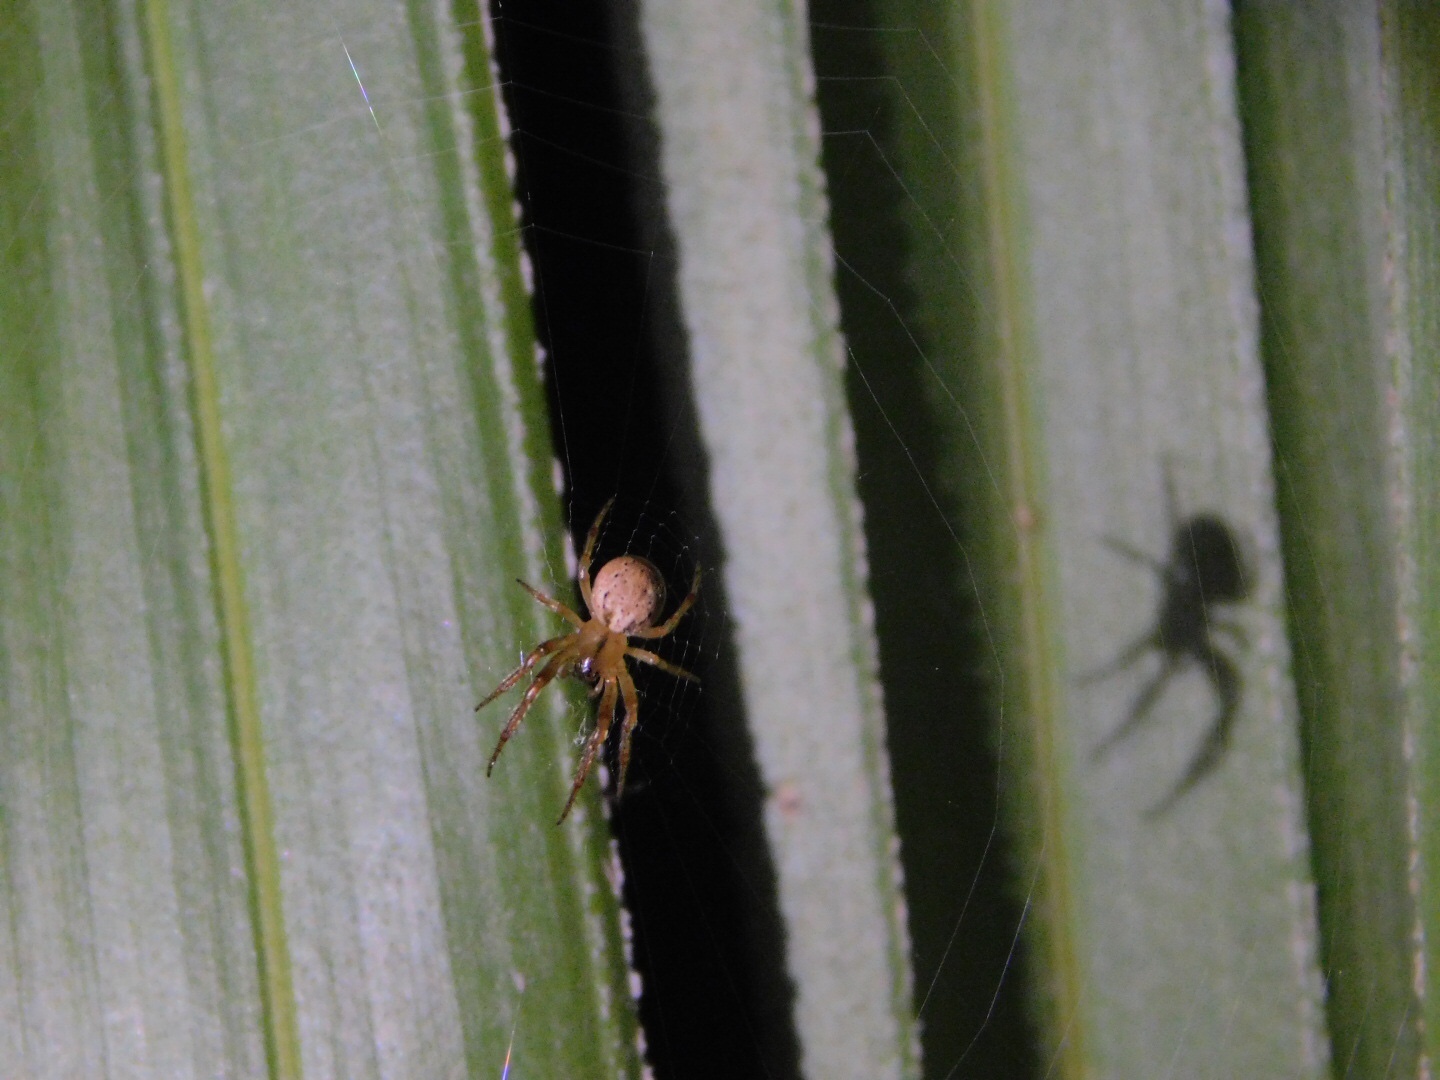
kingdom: Animalia
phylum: Arthropoda
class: Arachnida
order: Araneae
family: Araneidae
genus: Metazygia
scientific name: Metazygia zilloides
